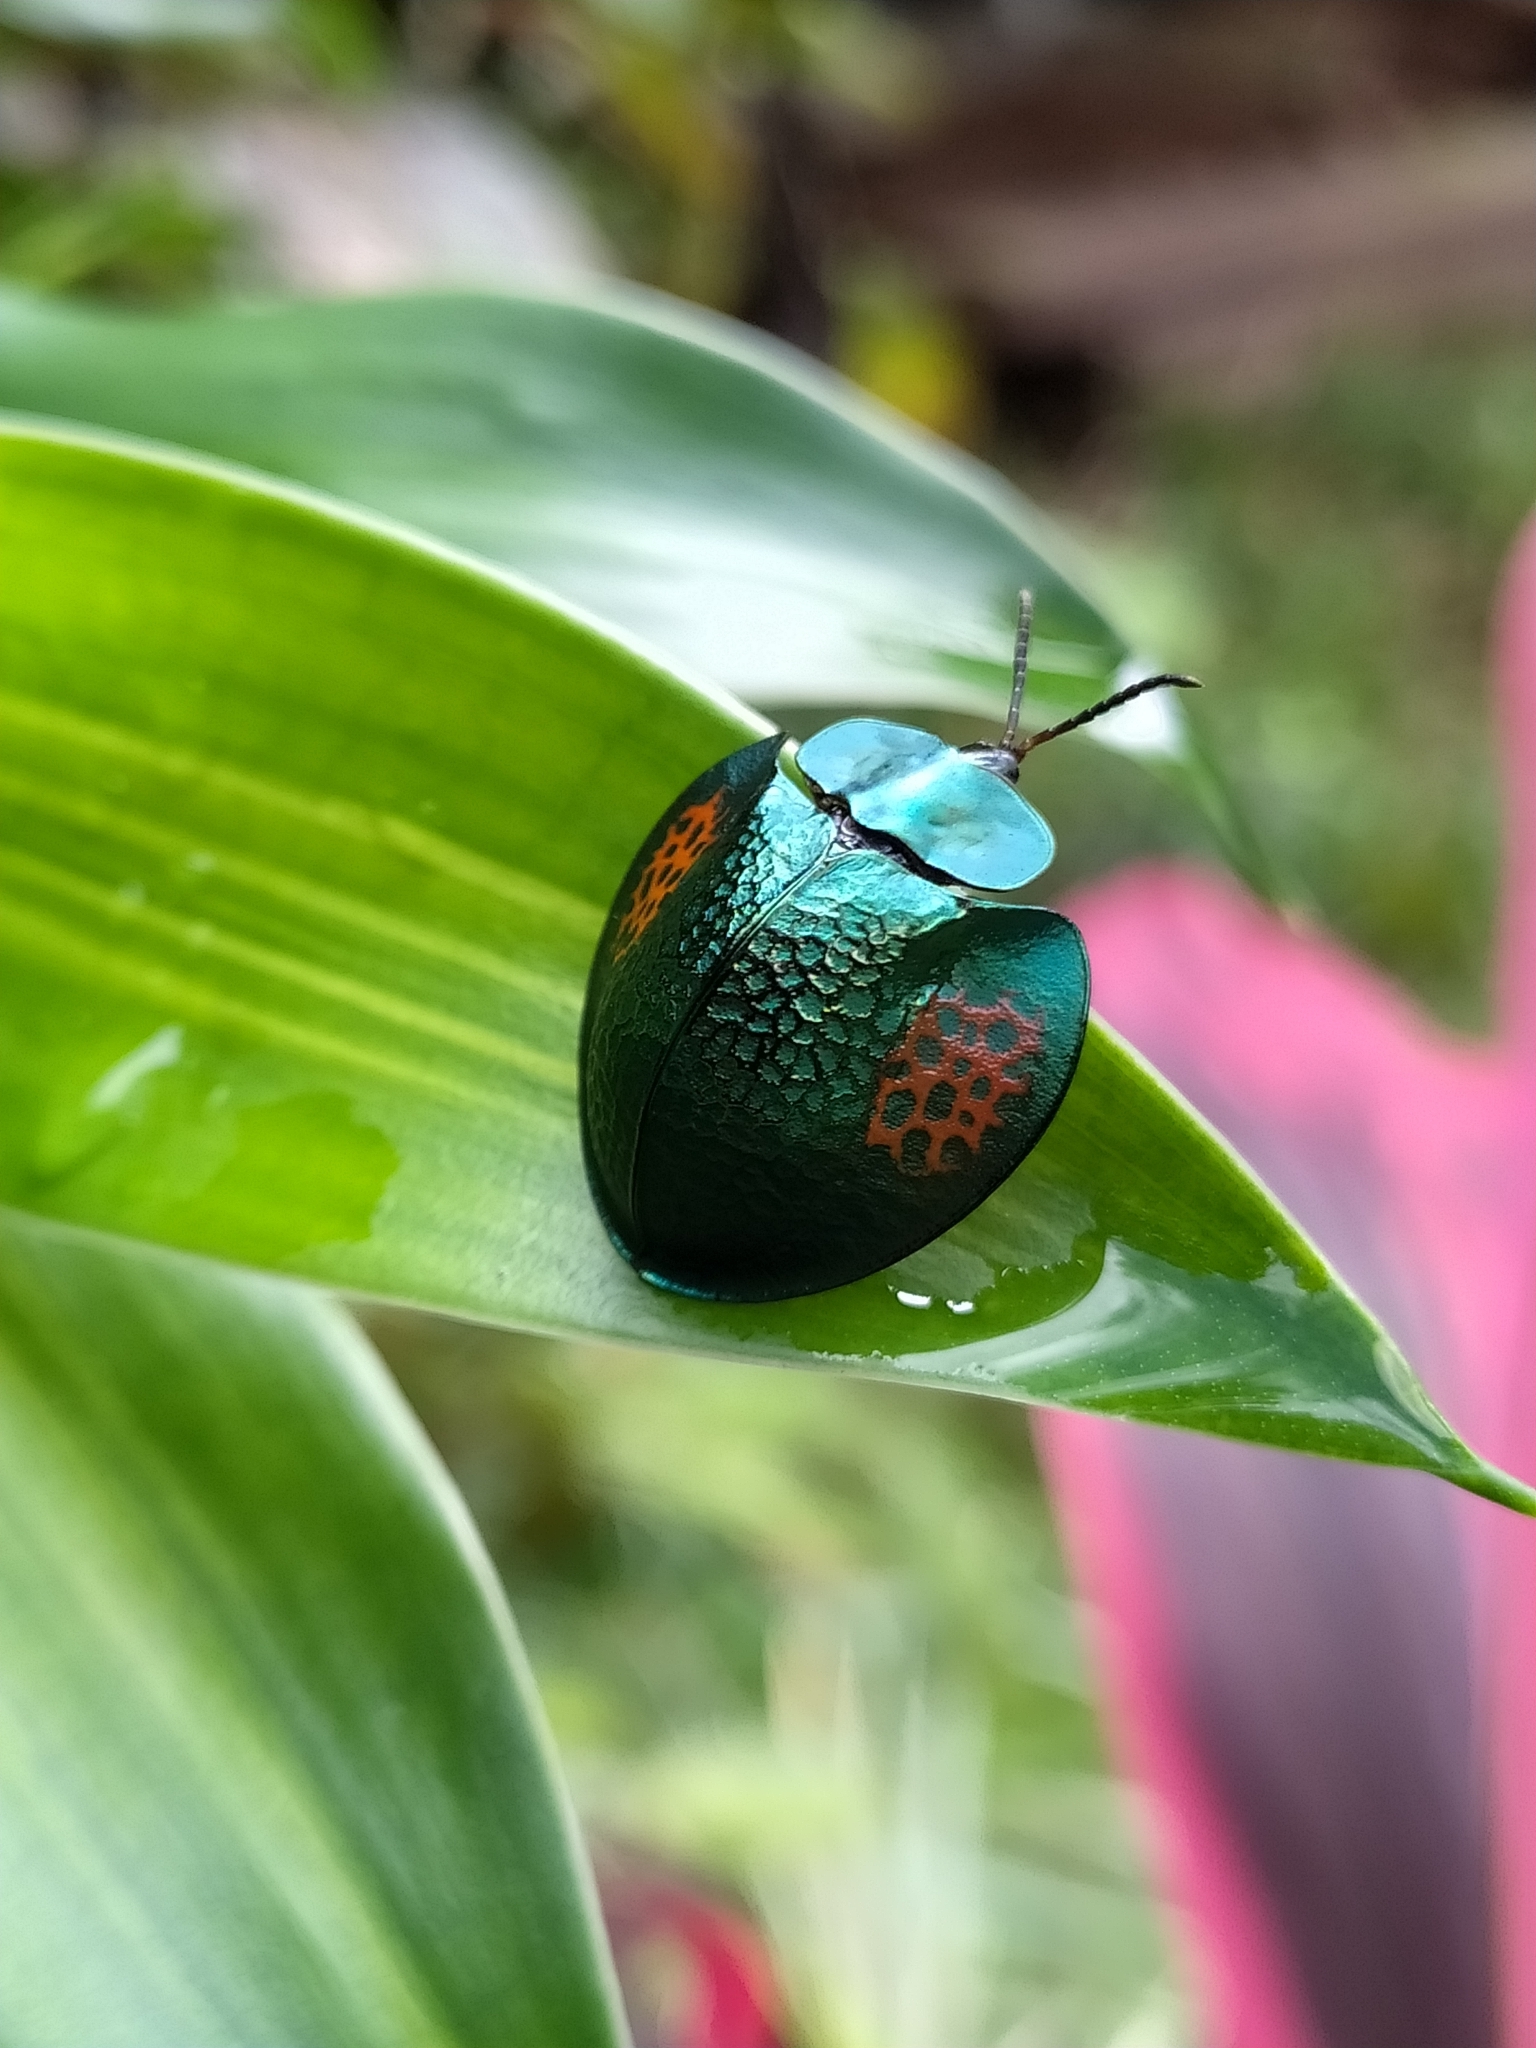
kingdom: Animalia
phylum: Arthropoda
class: Insecta
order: Coleoptera
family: Chrysomelidae
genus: Agenysa
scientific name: Agenysa caedemadens
